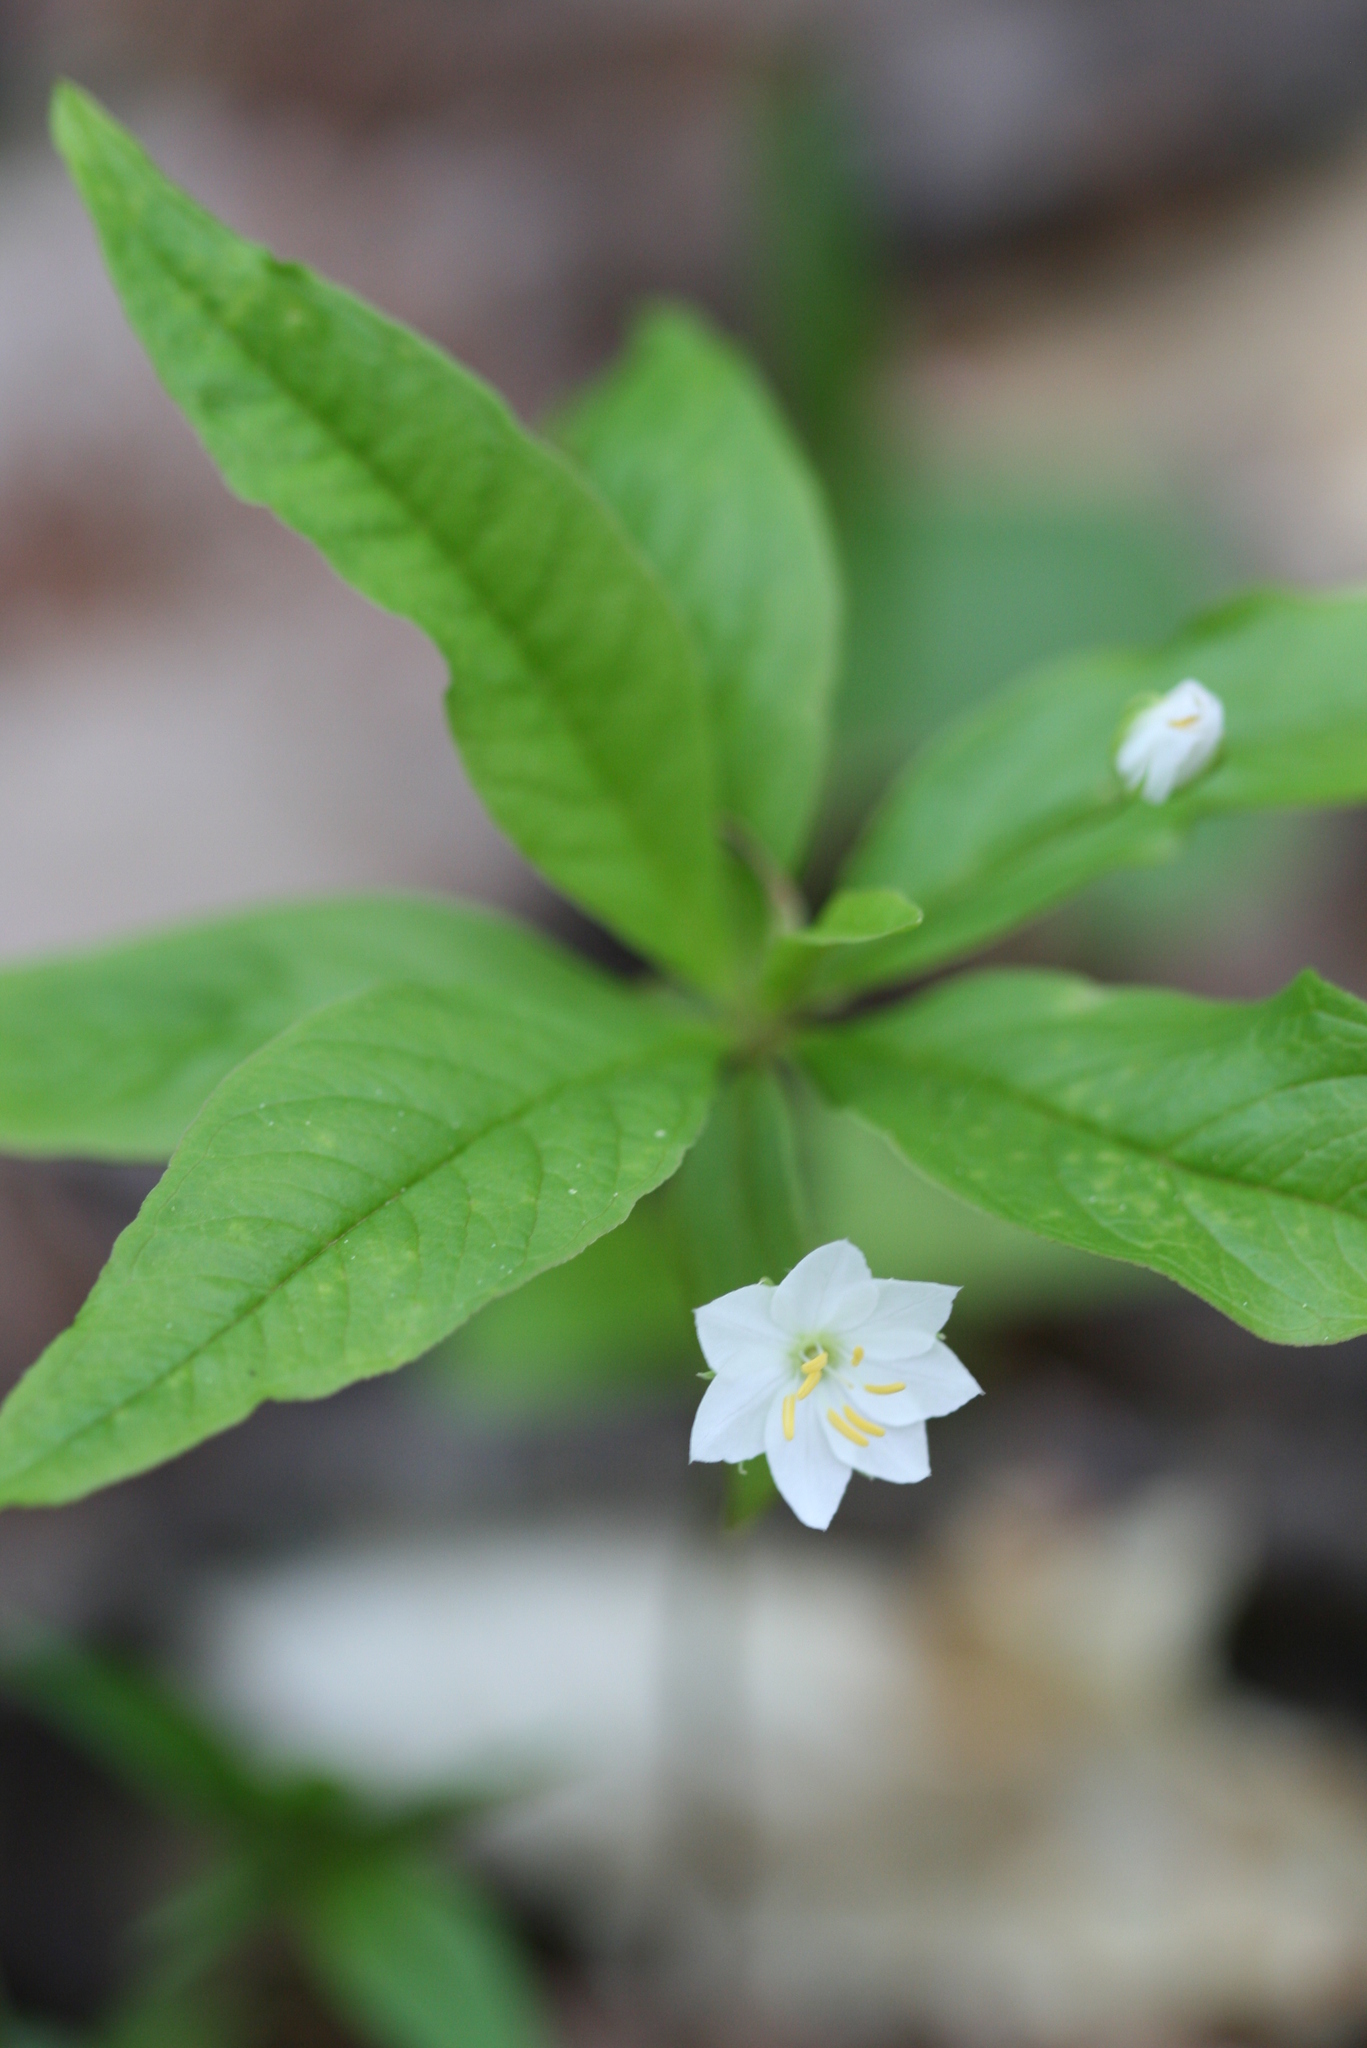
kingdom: Plantae
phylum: Tracheophyta
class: Magnoliopsida
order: Ericales
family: Primulaceae
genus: Lysimachia
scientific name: Lysimachia borealis
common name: American starflower
